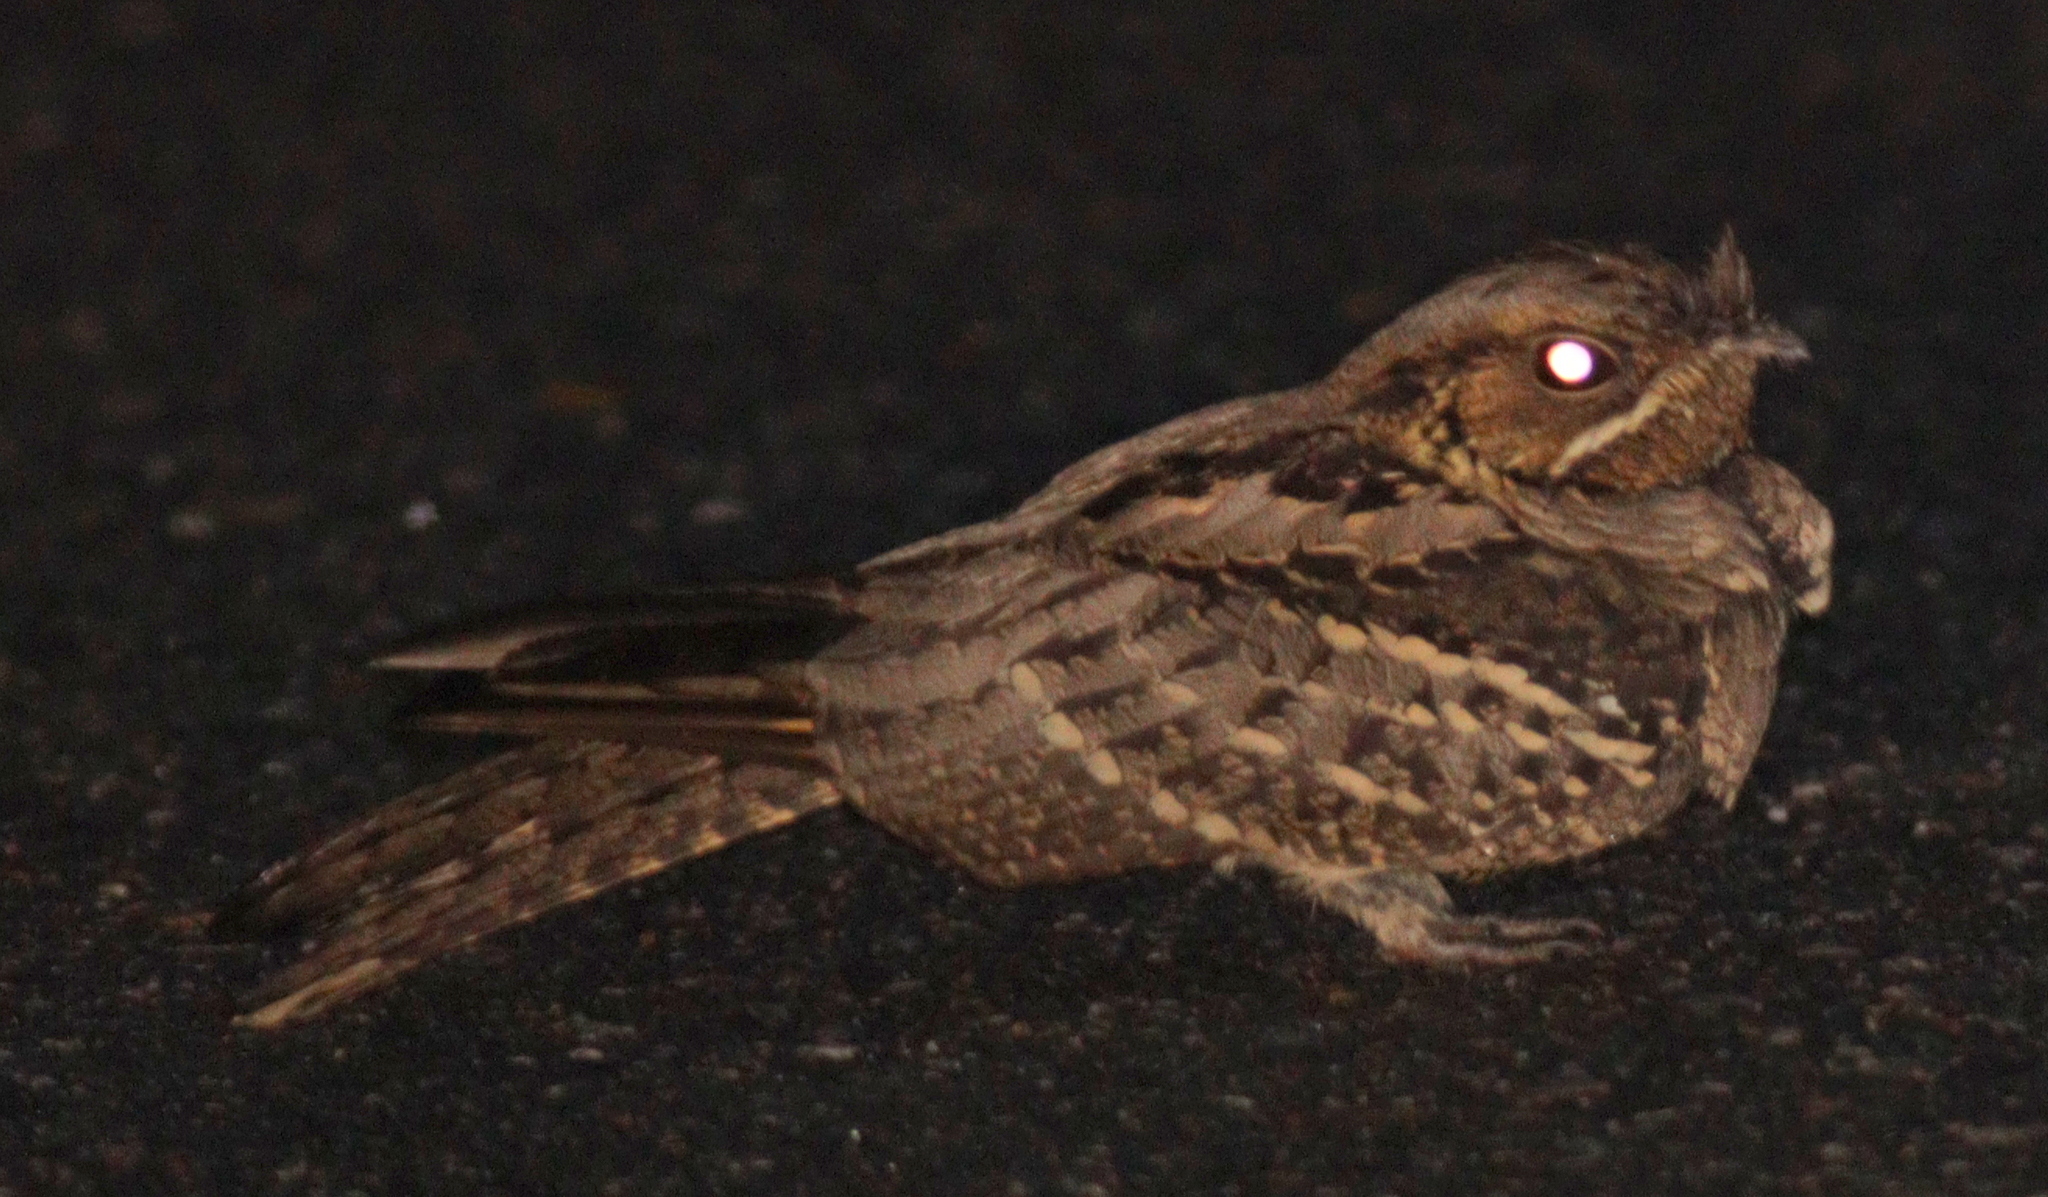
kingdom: Animalia
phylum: Chordata
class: Aves
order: Caprimulgiformes
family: Caprimulgidae
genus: Caprimulgus
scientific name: Caprimulgus macrurus
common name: Large-tailed nightjar
